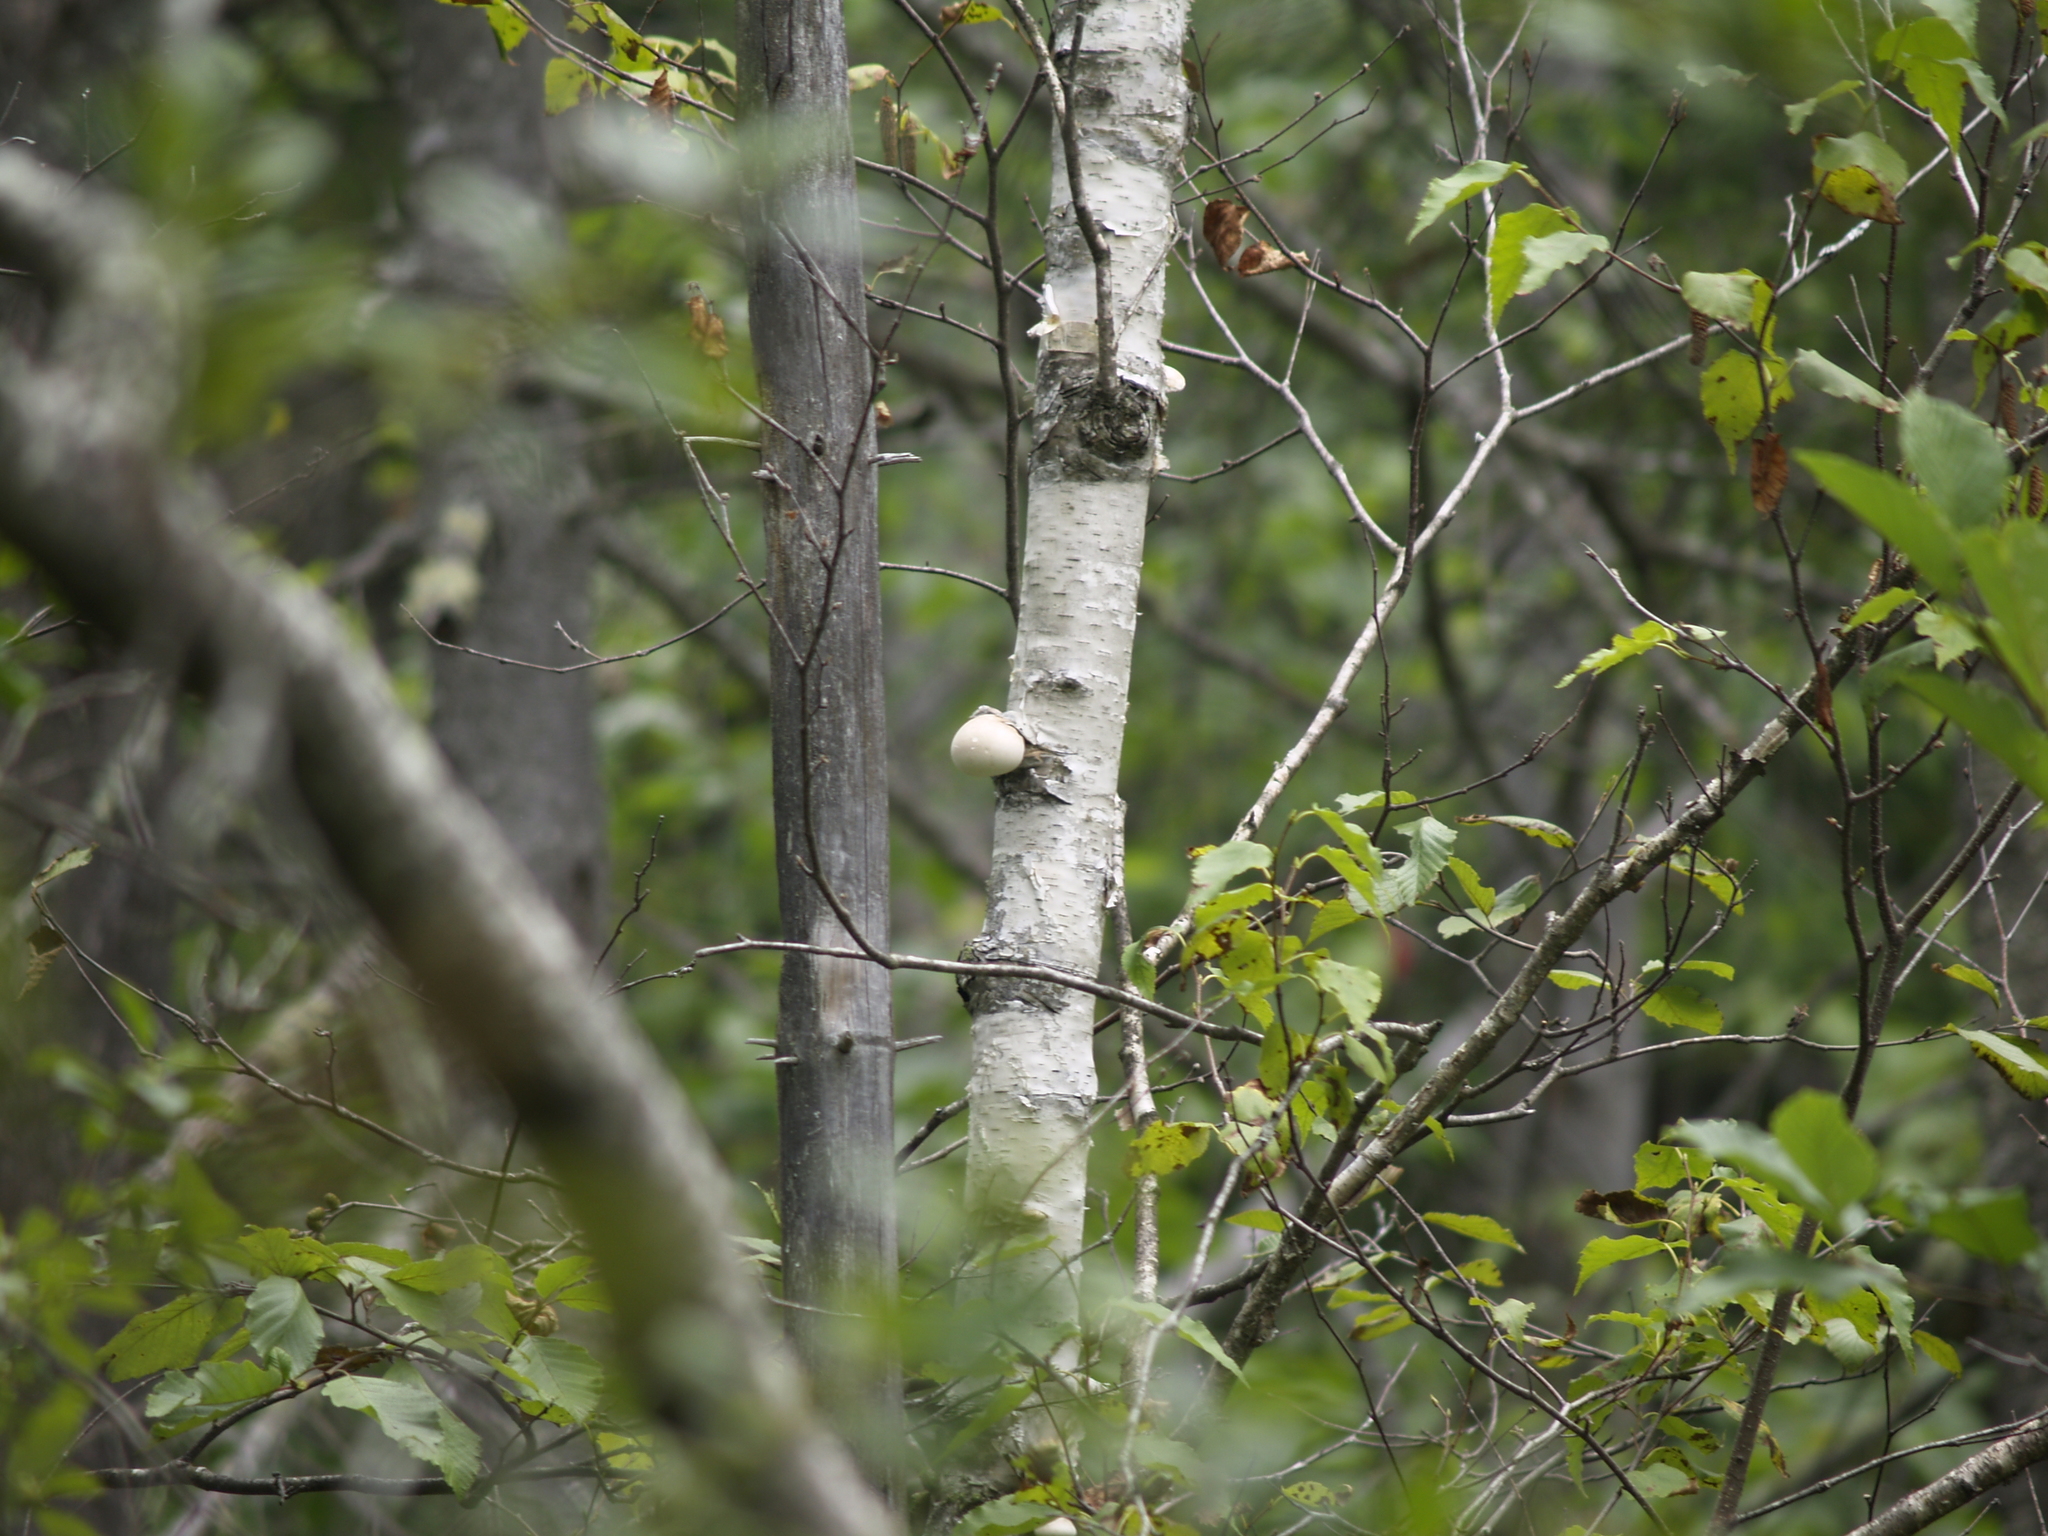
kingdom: Fungi
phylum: Basidiomycota
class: Agaricomycetes
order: Polyporales
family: Fomitopsidaceae
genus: Fomitopsis
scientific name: Fomitopsis betulina
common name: Birch polypore
